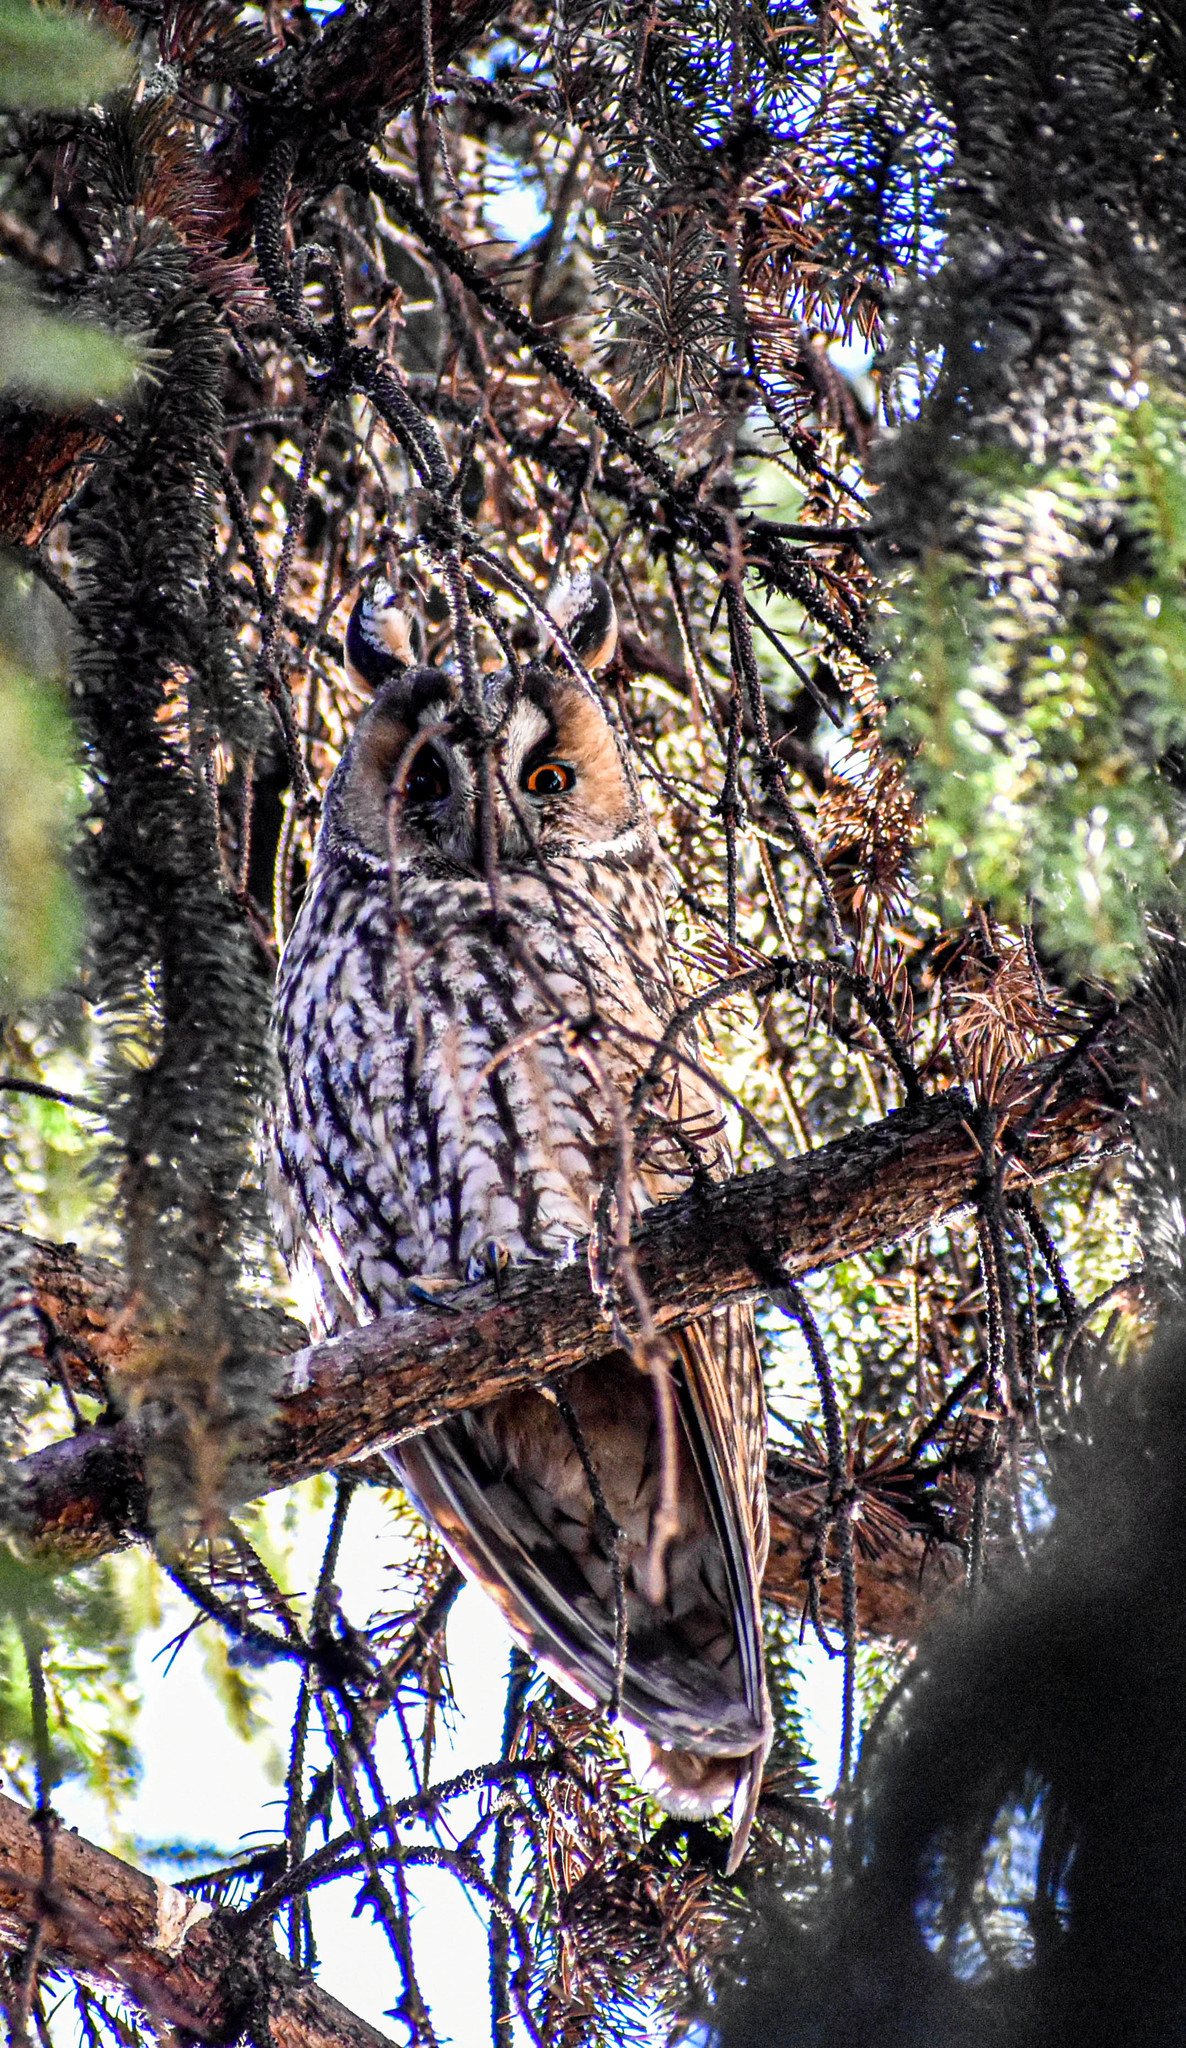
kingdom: Animalia
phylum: Chordata
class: Aves
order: Strigiformes
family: Strigidae
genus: Asio
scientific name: Asio otus
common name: Long-eared owl
